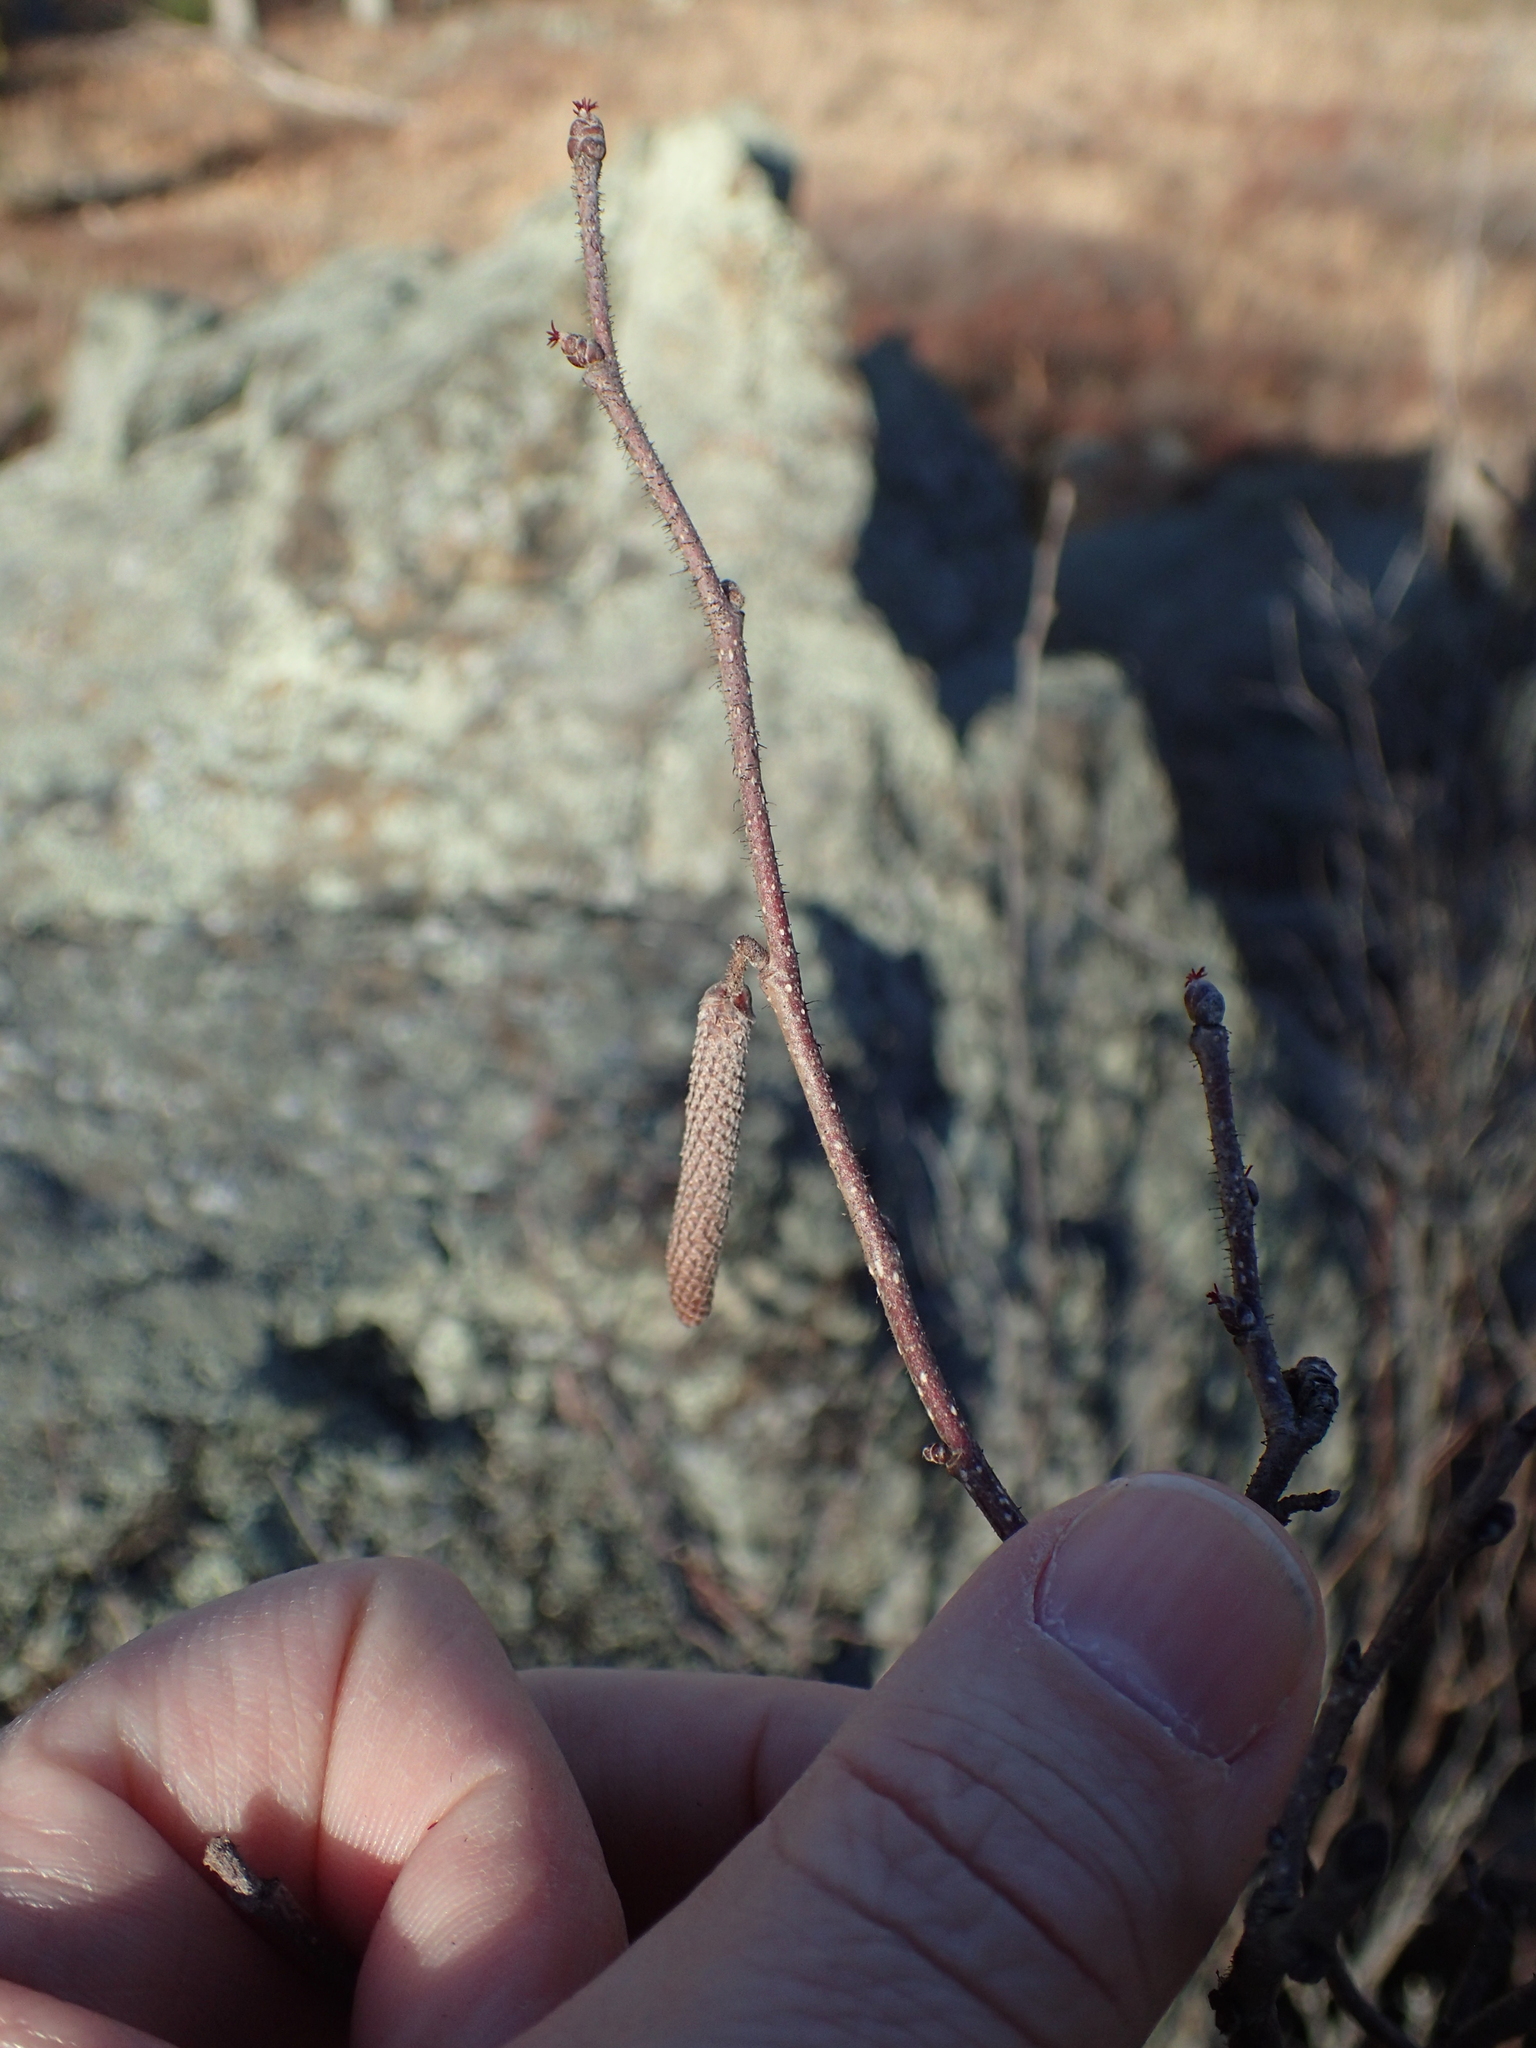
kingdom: Plantae
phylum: Tracheophyta
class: Magnoliopsida
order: Fagales
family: Betulaceae
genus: Corylus
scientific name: Corylus americana
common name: American hazel
